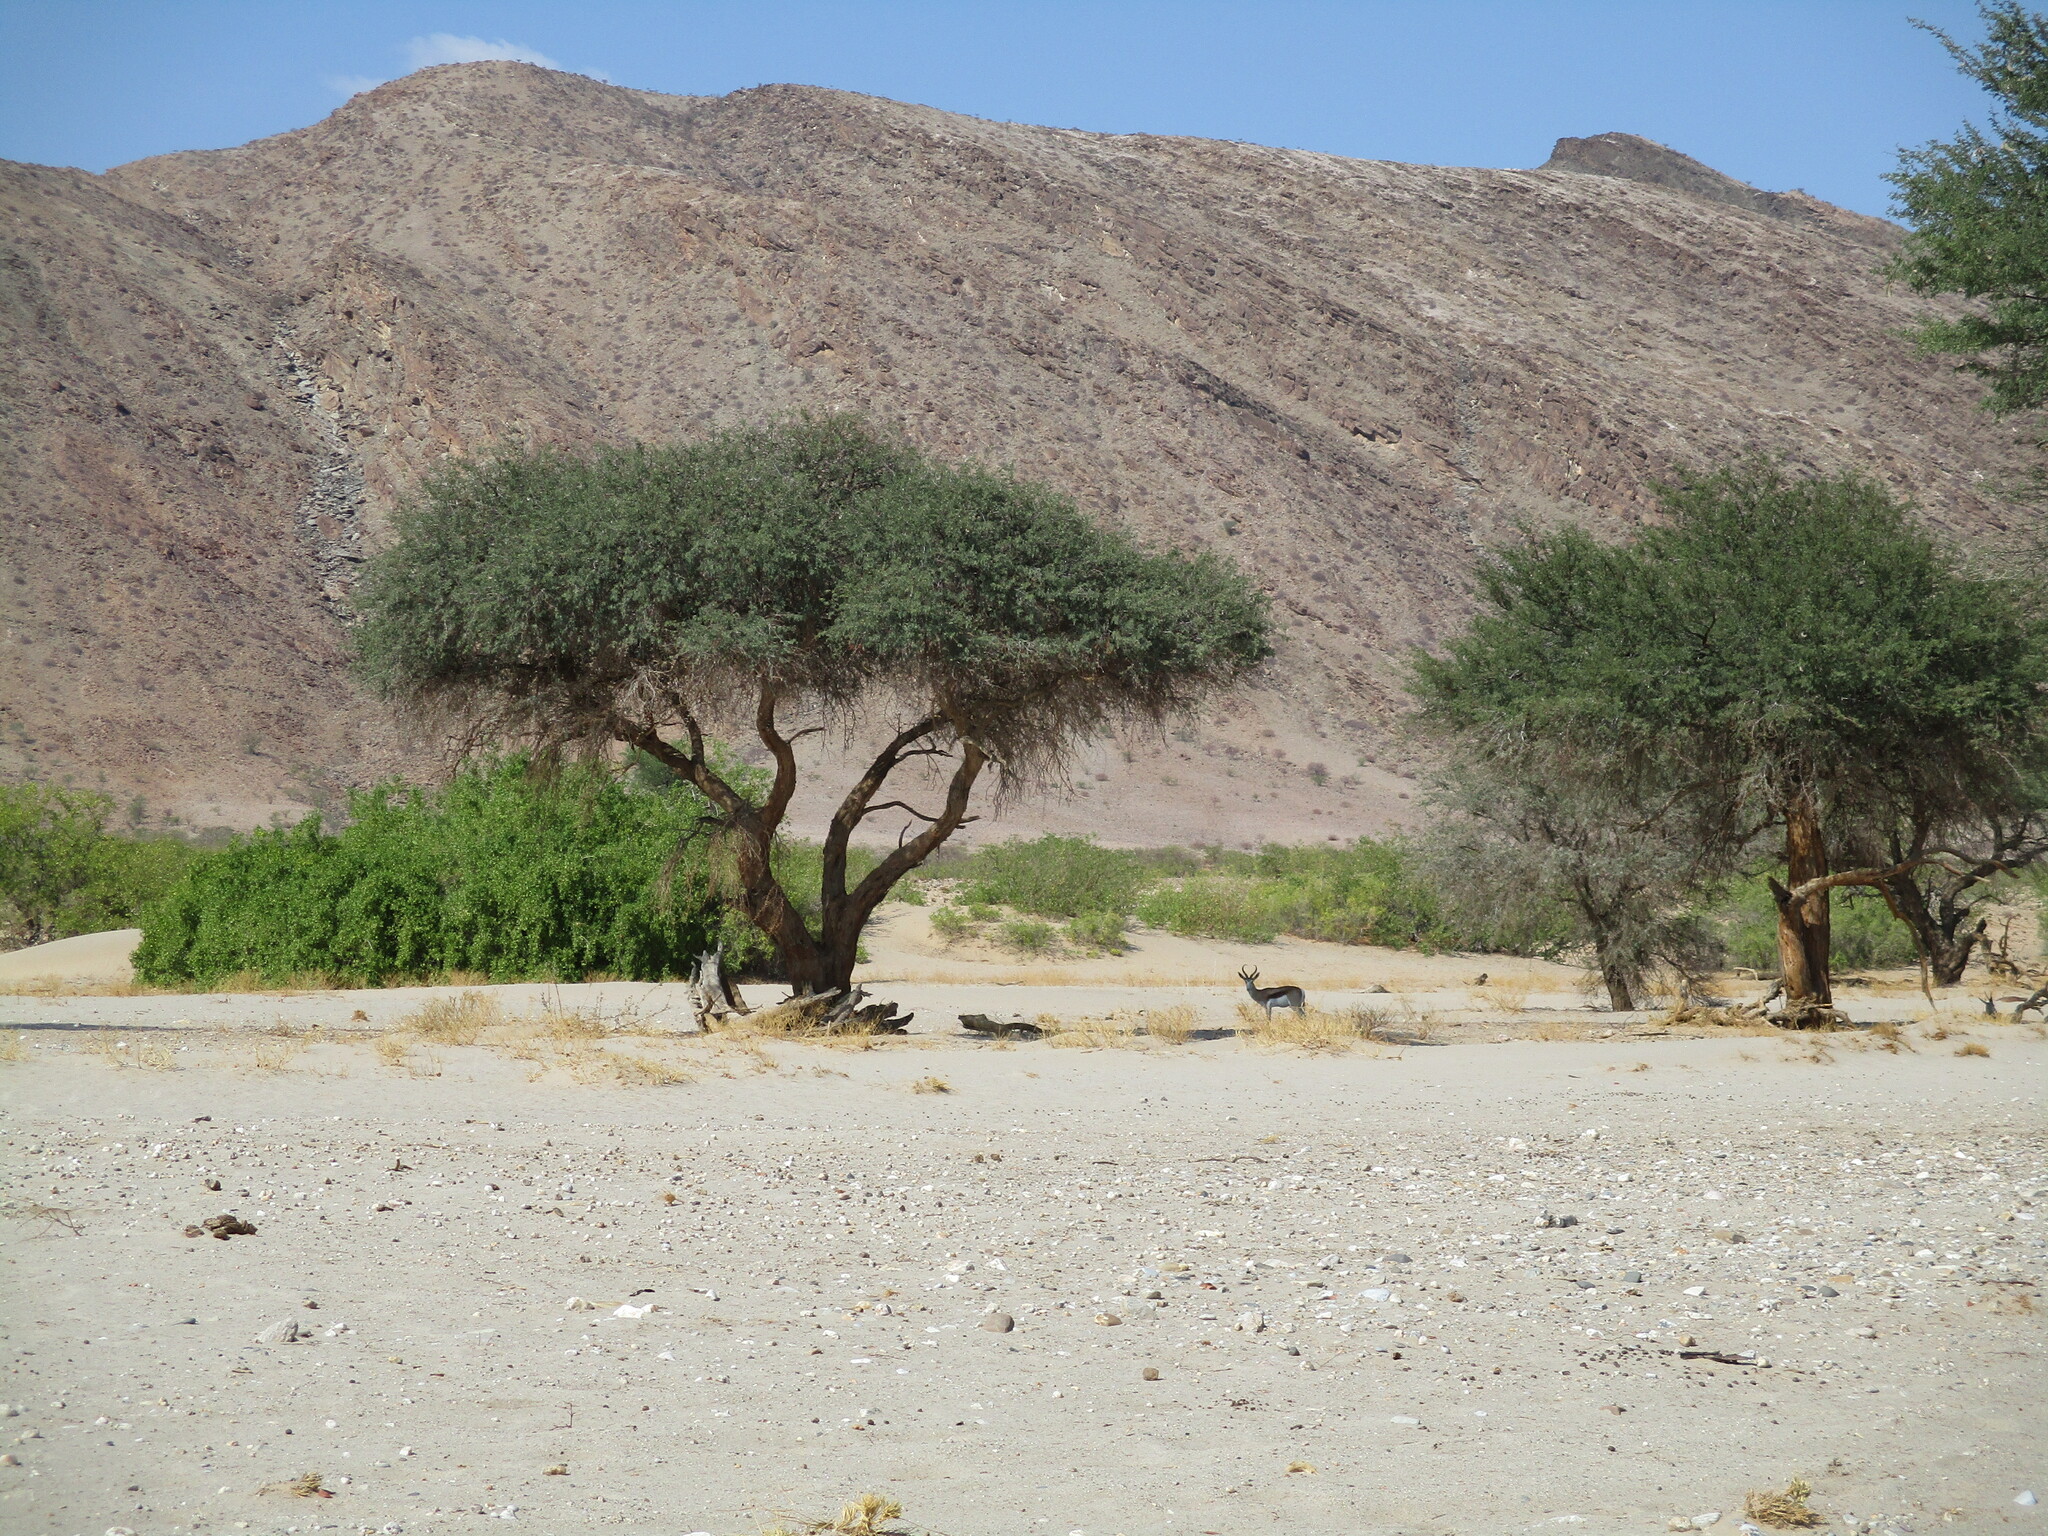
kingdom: Animalia
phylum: Chordata
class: Mammalia
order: Artiodactyla
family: Bovidae
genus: Antidorcas
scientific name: Antidorcas marsupialis
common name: Springbok
